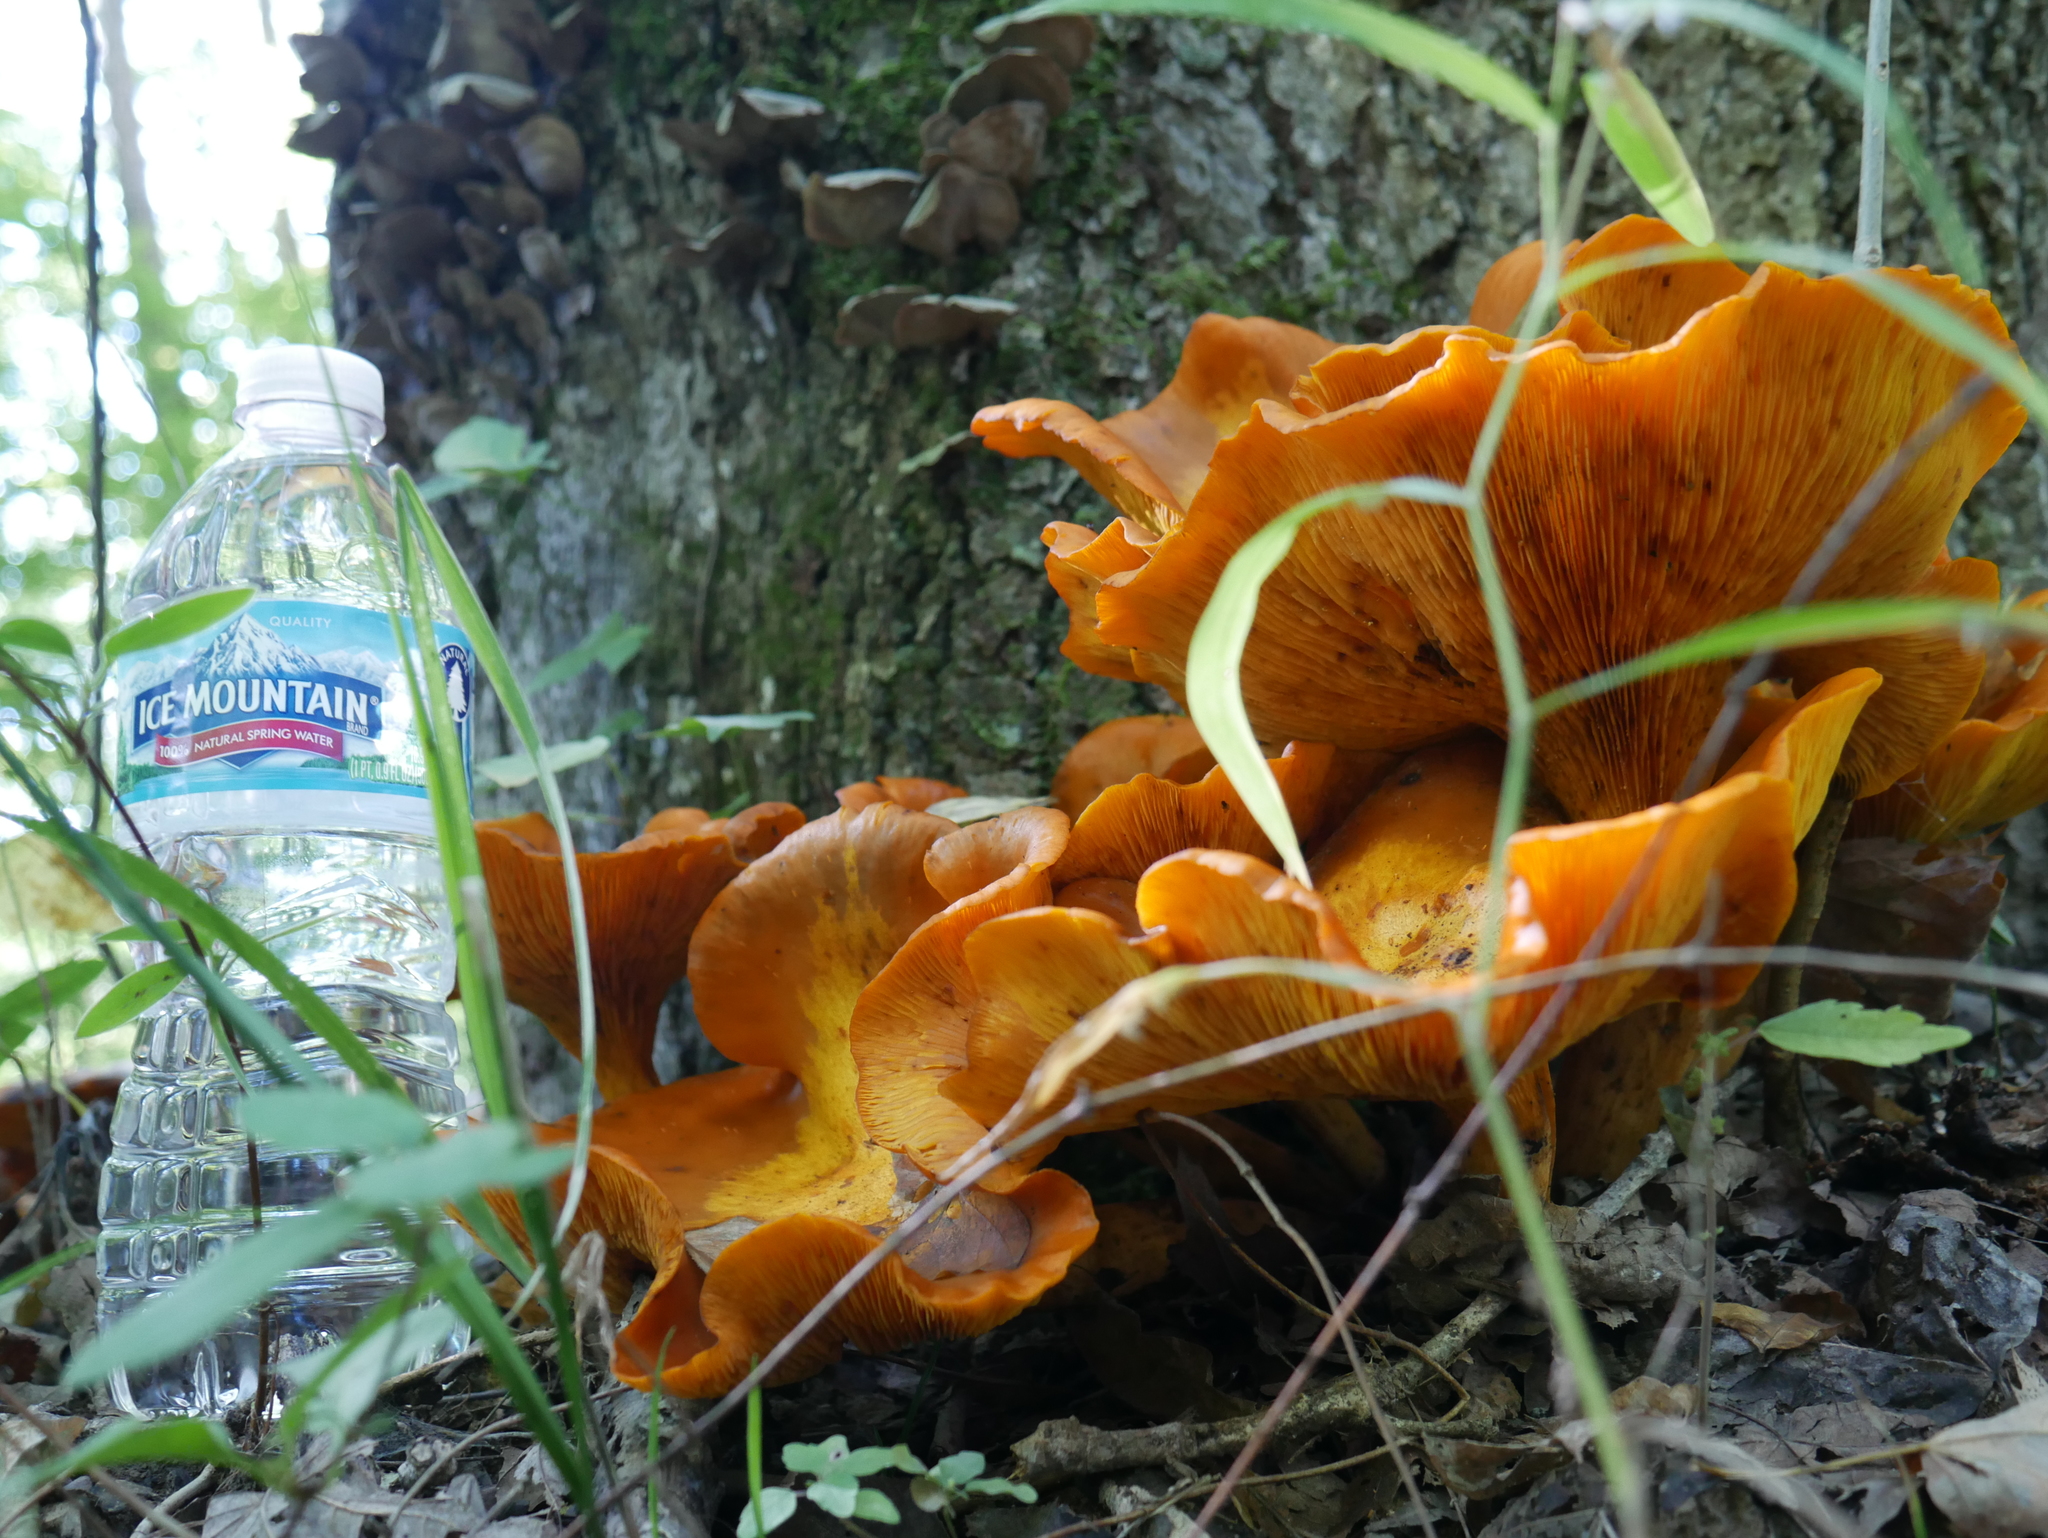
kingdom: Fungi
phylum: Basidiomycota
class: Agaricomycetes
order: Agaricales
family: Omphalotaceae
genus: Omphalotus
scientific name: Omphalotus illudens
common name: Jack o lantern
